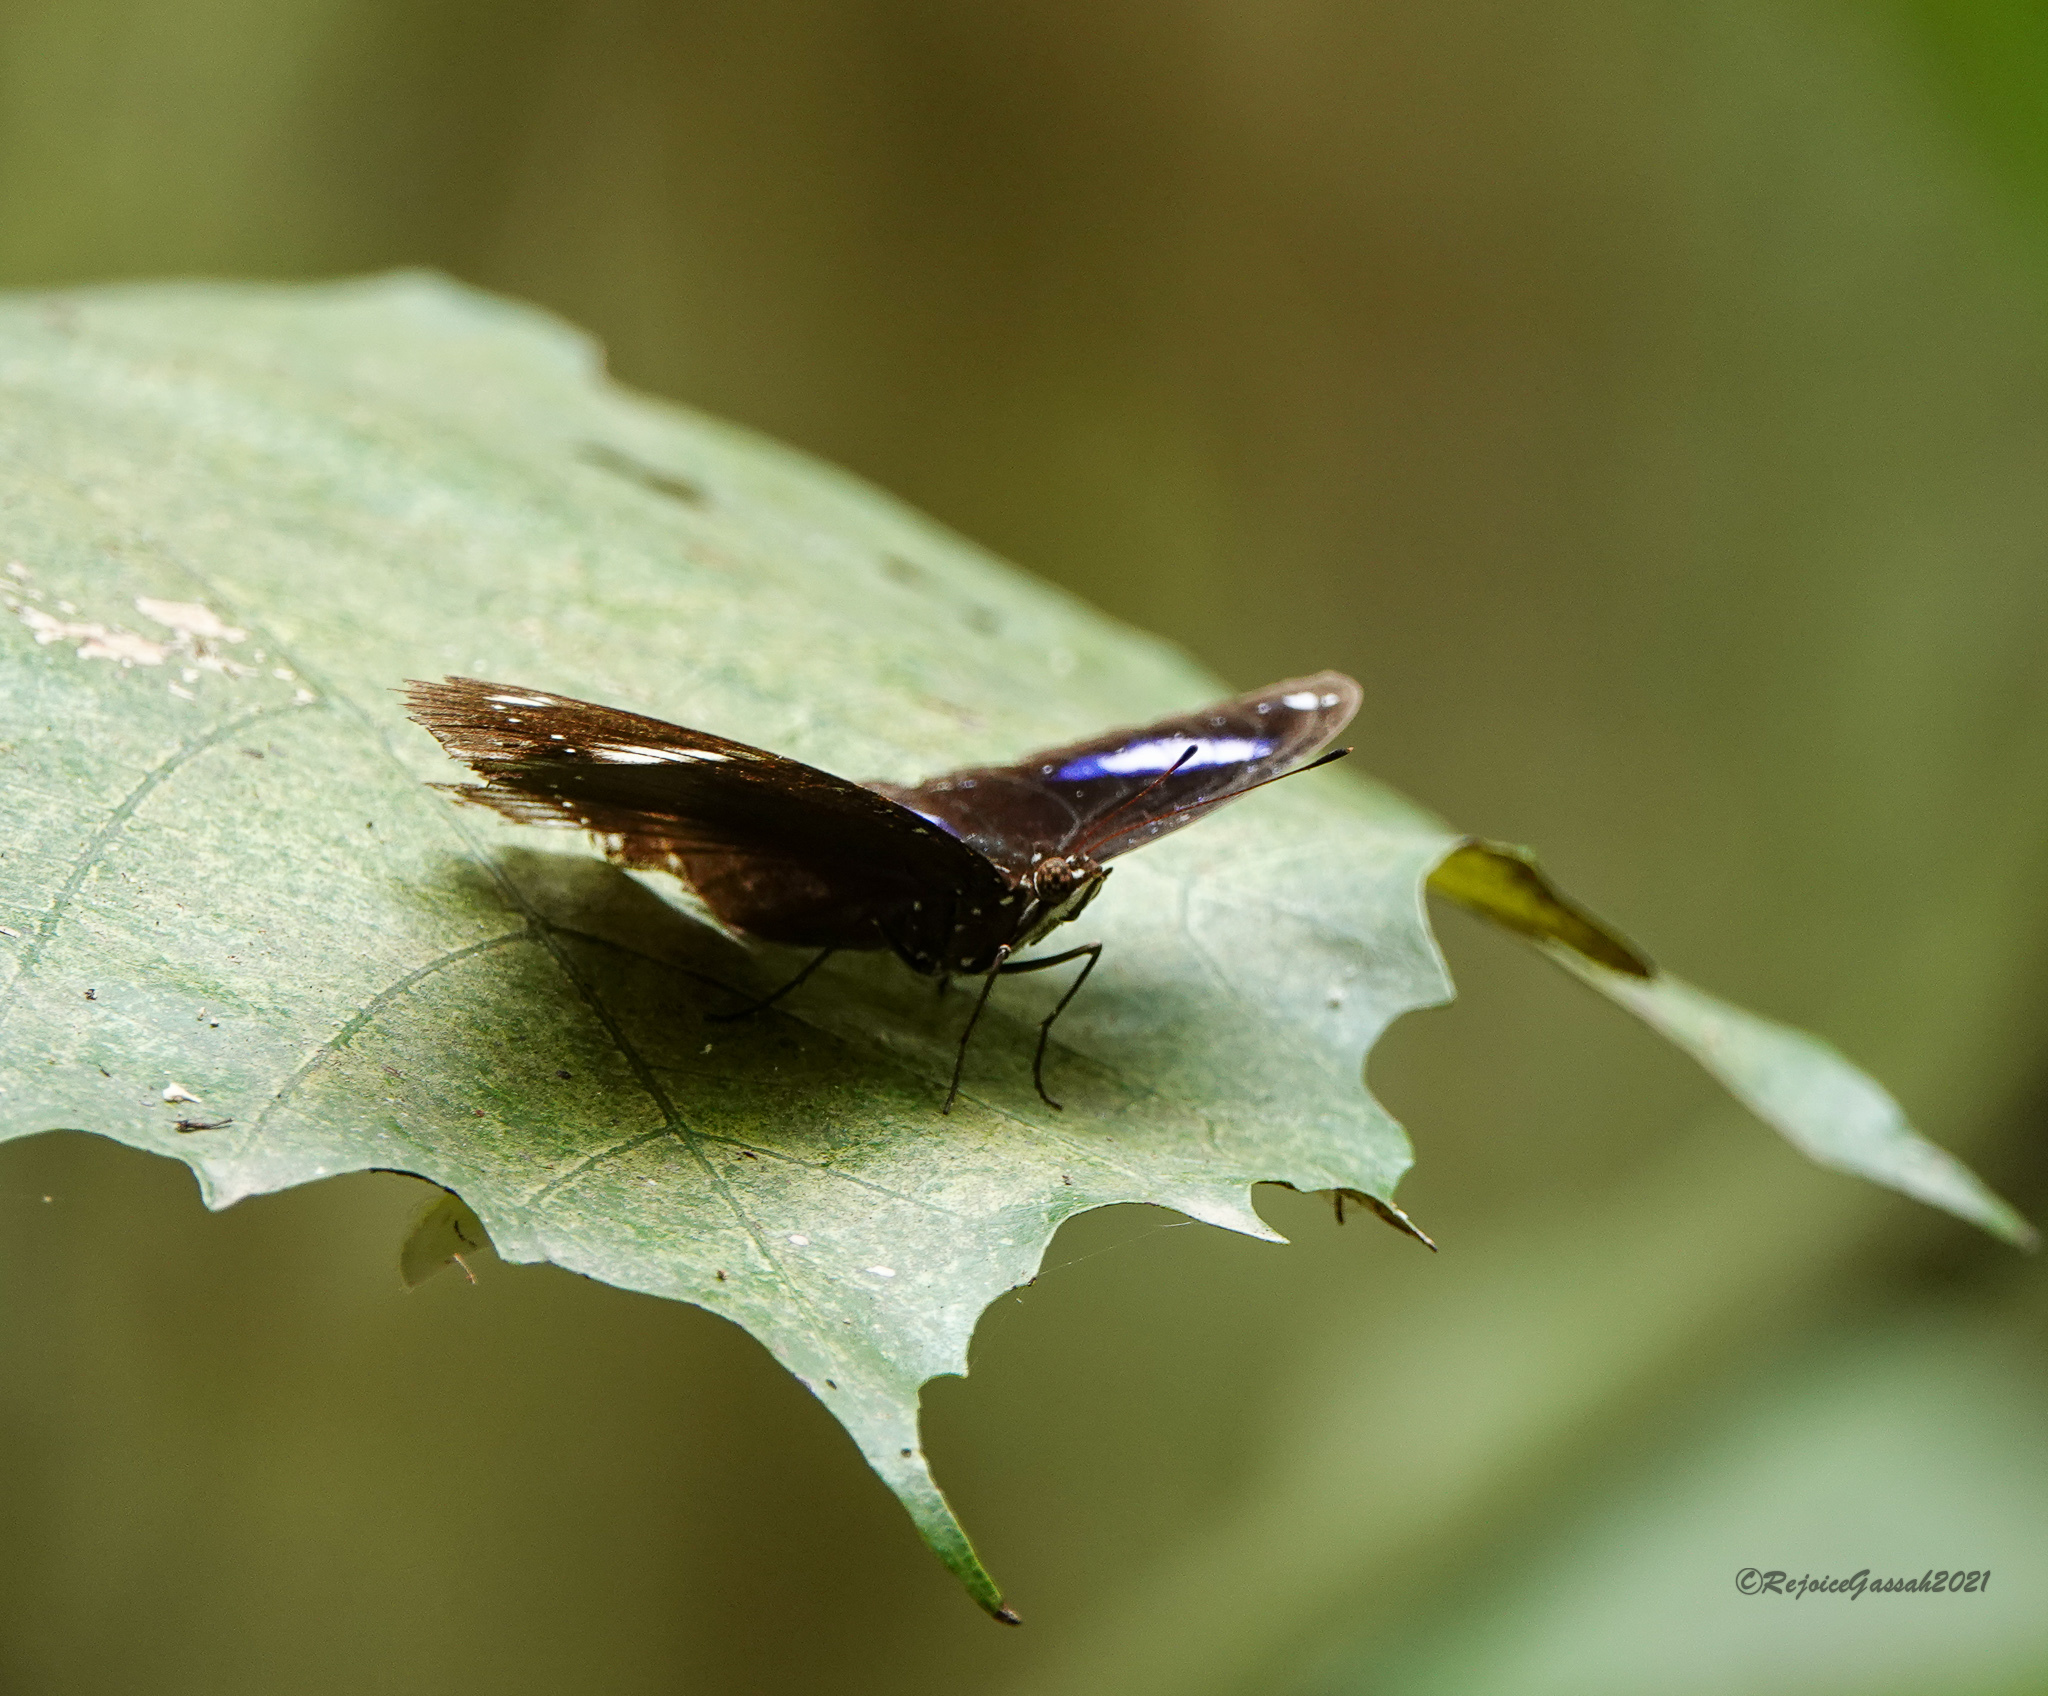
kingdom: Animalia
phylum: Arthropoda
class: Insecta
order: Lepidoptera
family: Nymphalidae
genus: Hypolimnas
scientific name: Hypolimnas bolina
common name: Great eggfly
